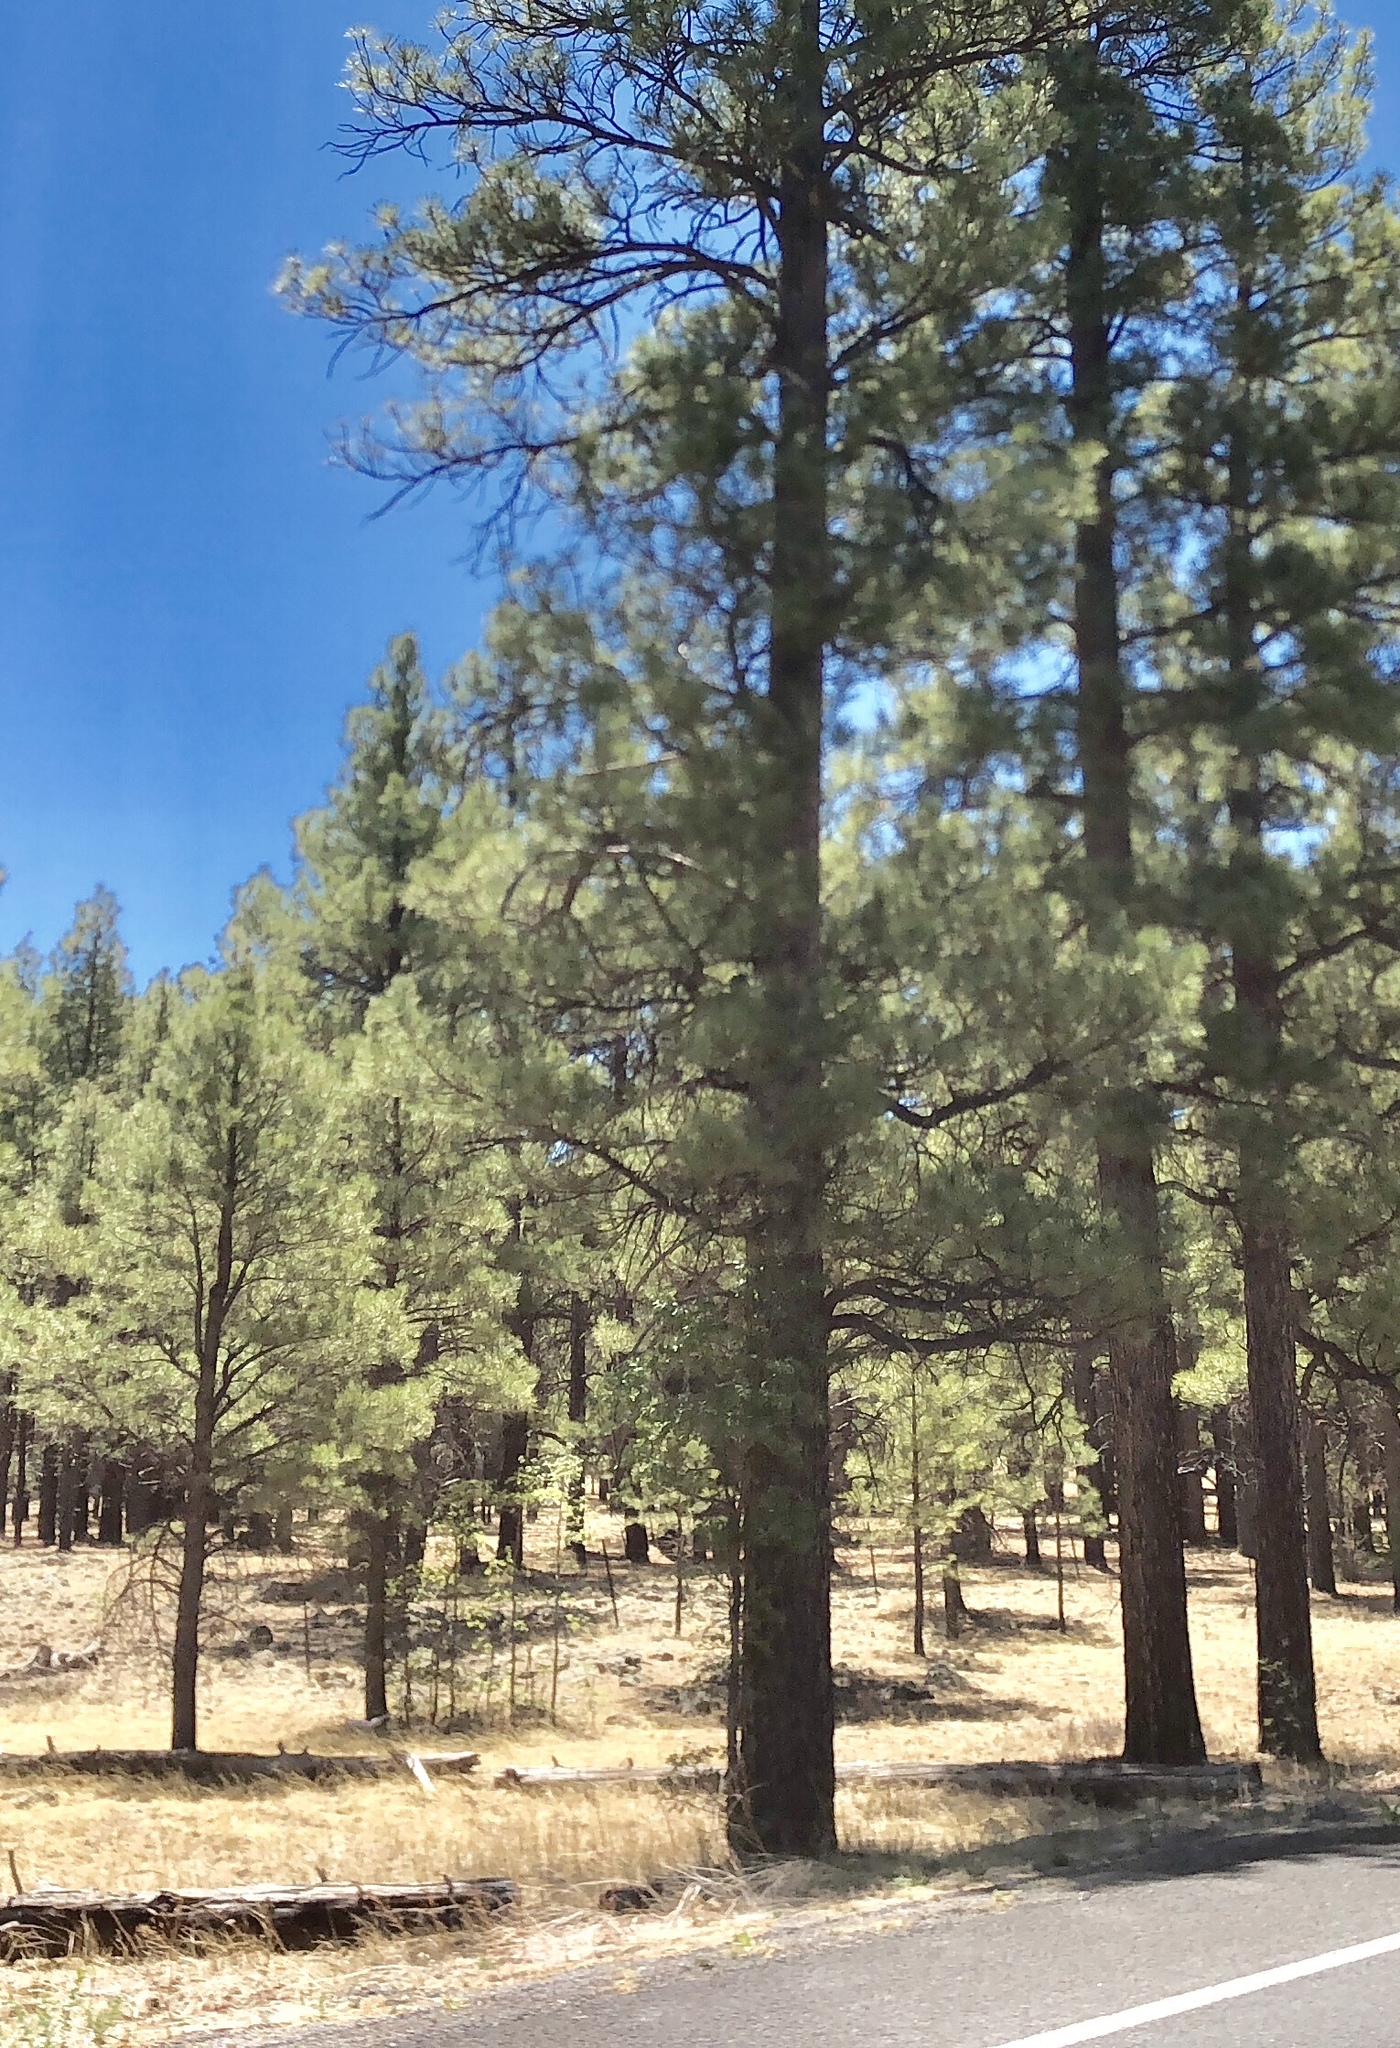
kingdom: Plantae
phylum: Tracheophyta
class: Pinopsida
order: Pinales
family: Pinaceae
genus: Pinus
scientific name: Pinus ponderosa
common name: Western yellow-pine
